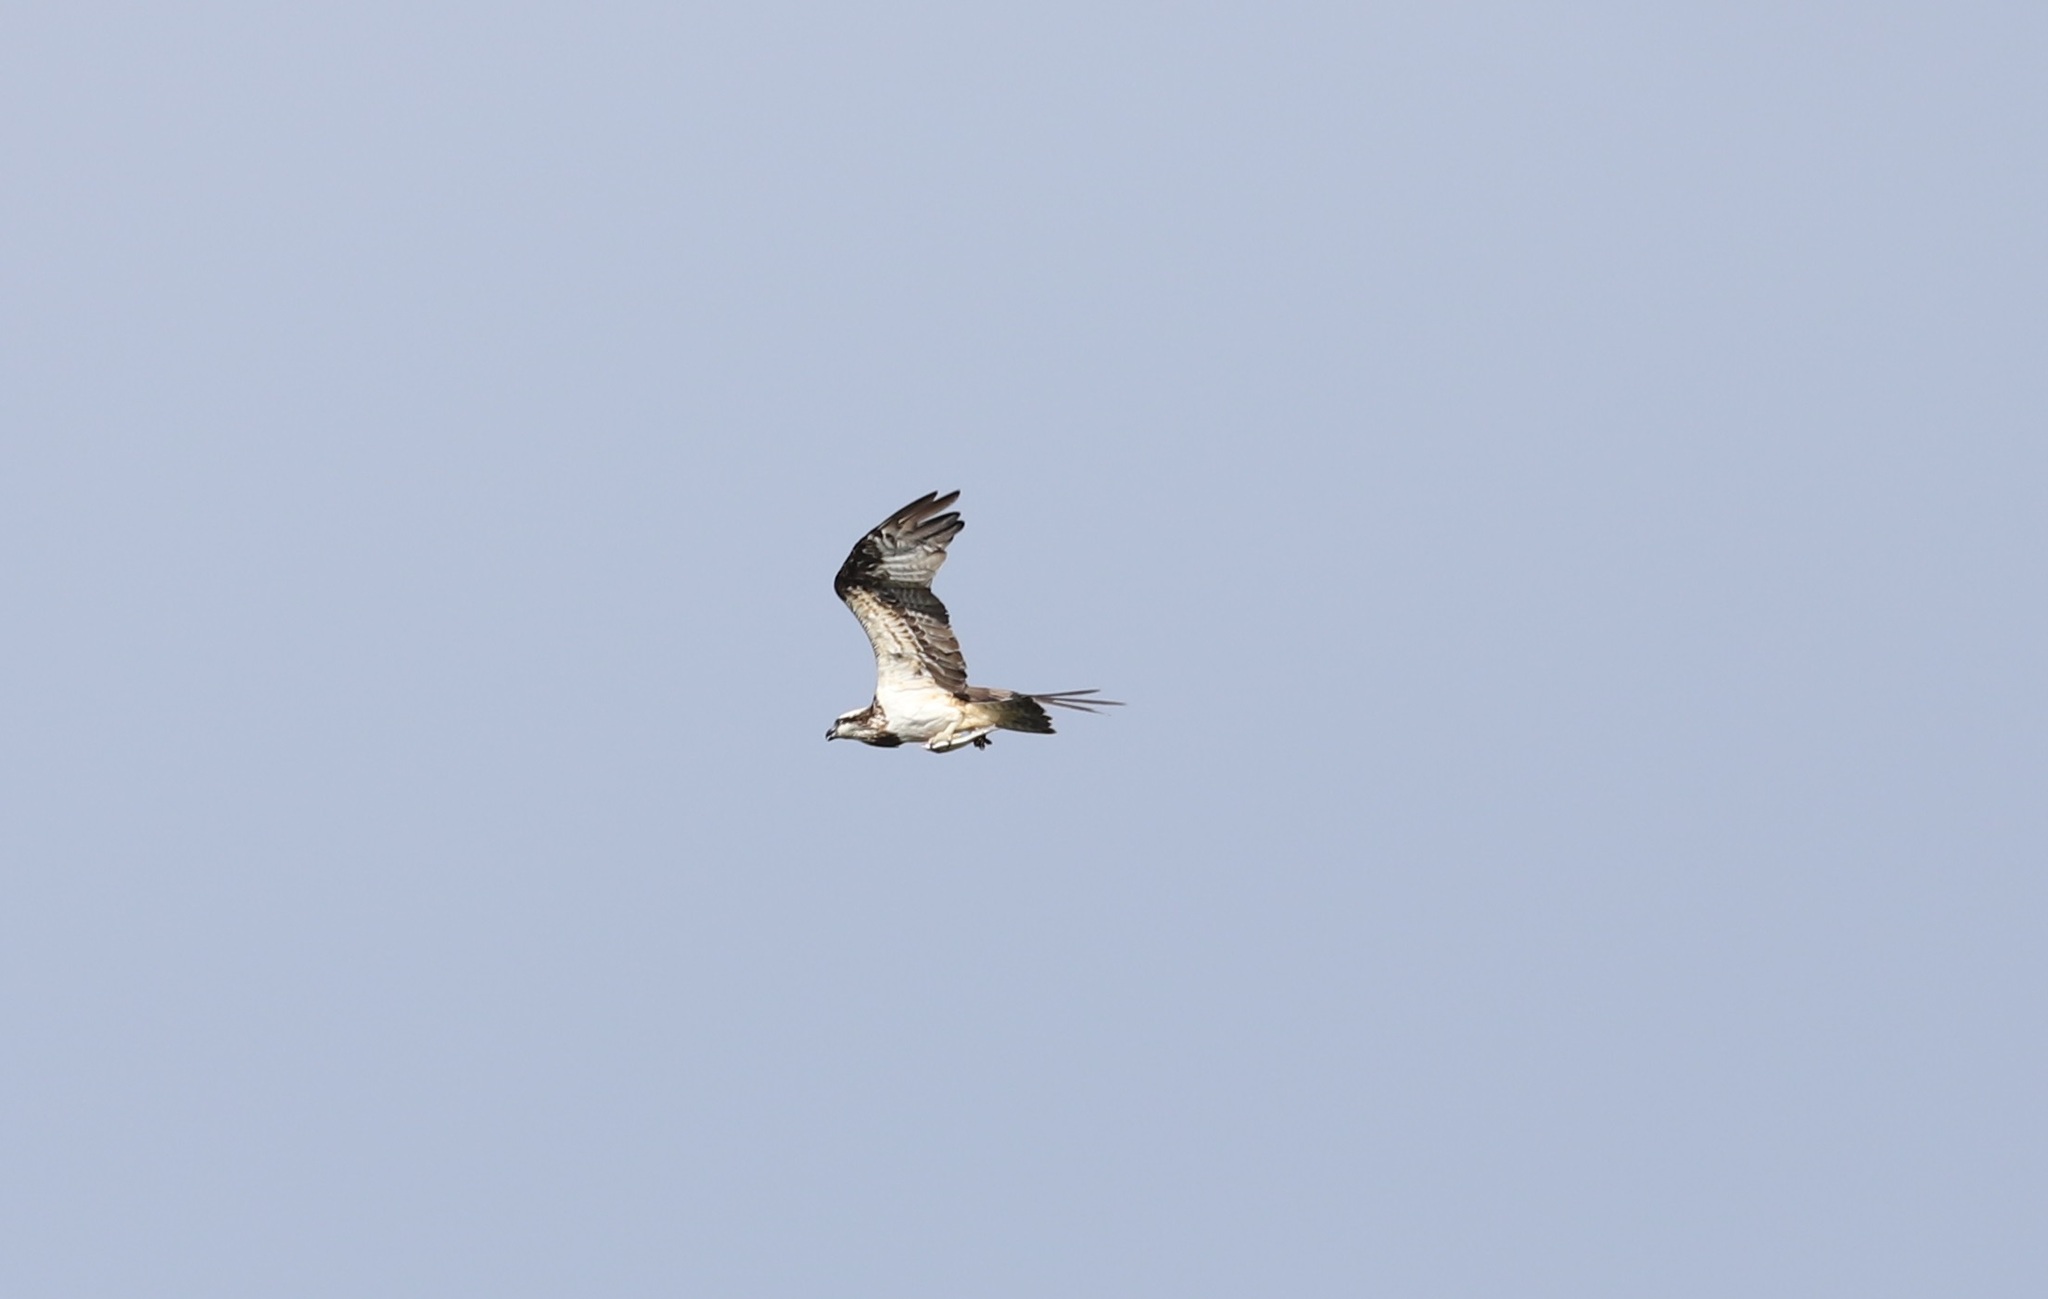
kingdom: Animalia
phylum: Chordata
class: Aves
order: Accipitriformes
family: Pandionidae
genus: Pandion
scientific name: Pandion haliaetus
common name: Osprey
